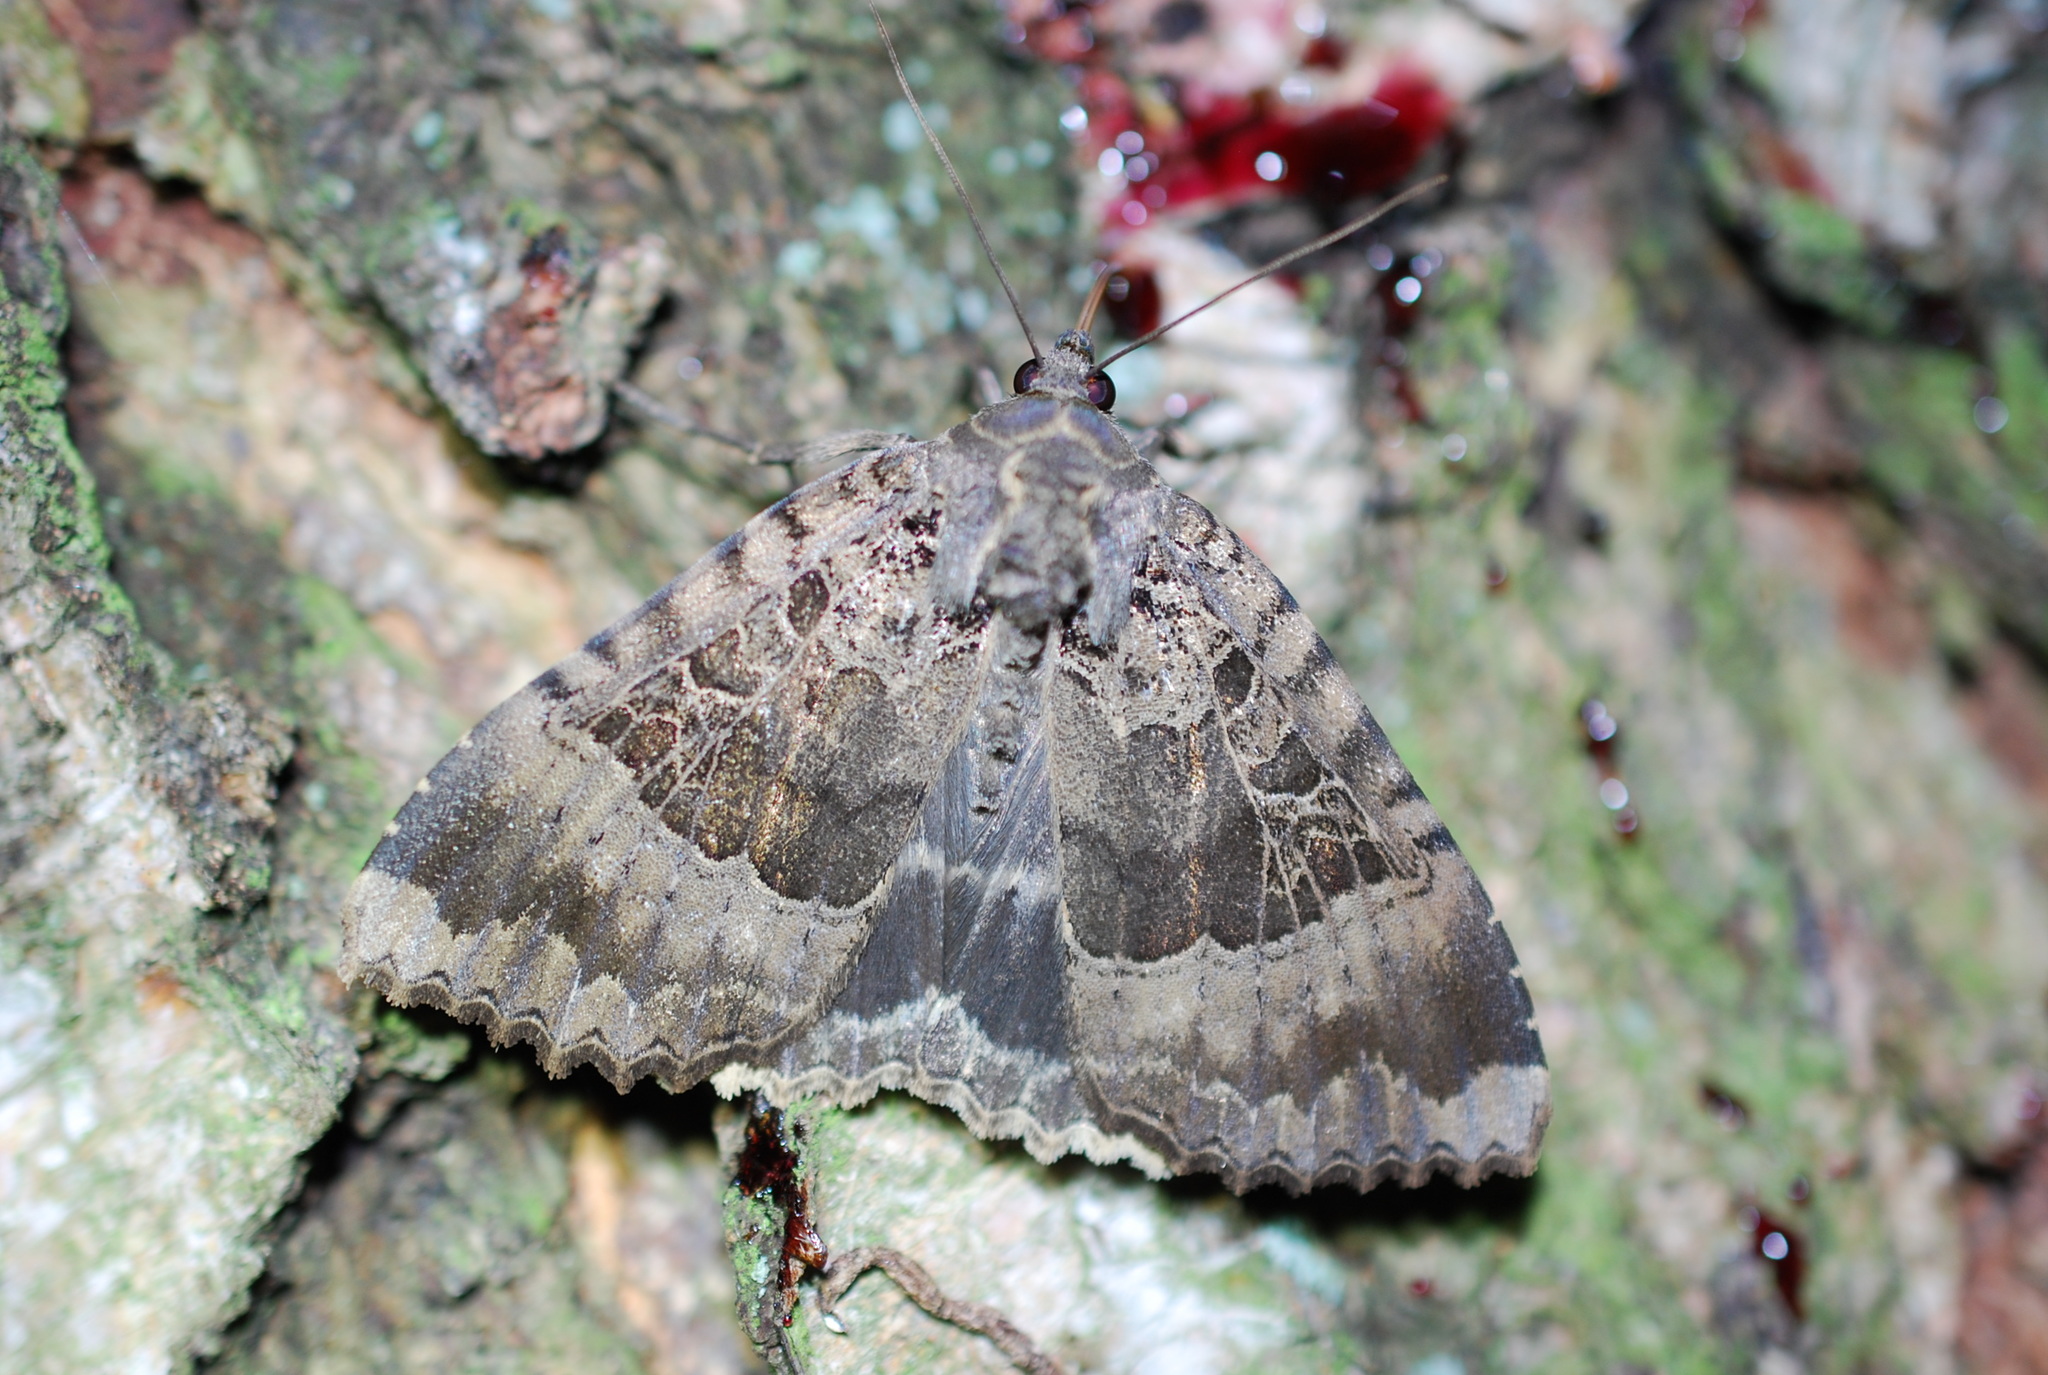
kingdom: Animalia
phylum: Arthropoda
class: Insecta
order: Lepidoptera
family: Noctuidae
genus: Mormo
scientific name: Mormo maura
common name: Old lady
